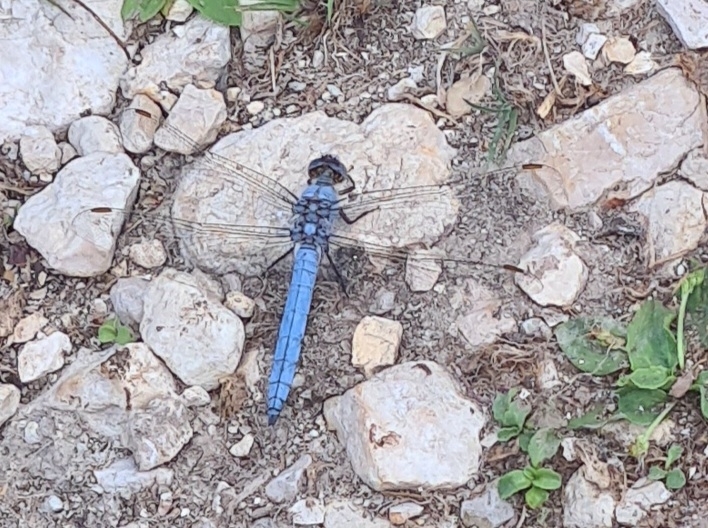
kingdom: Animalia
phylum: Arthropoda
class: Insecta
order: Odonata
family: Libellulidae
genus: Orthetrum
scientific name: Orthetrum brunneum
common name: Southern skimmer
